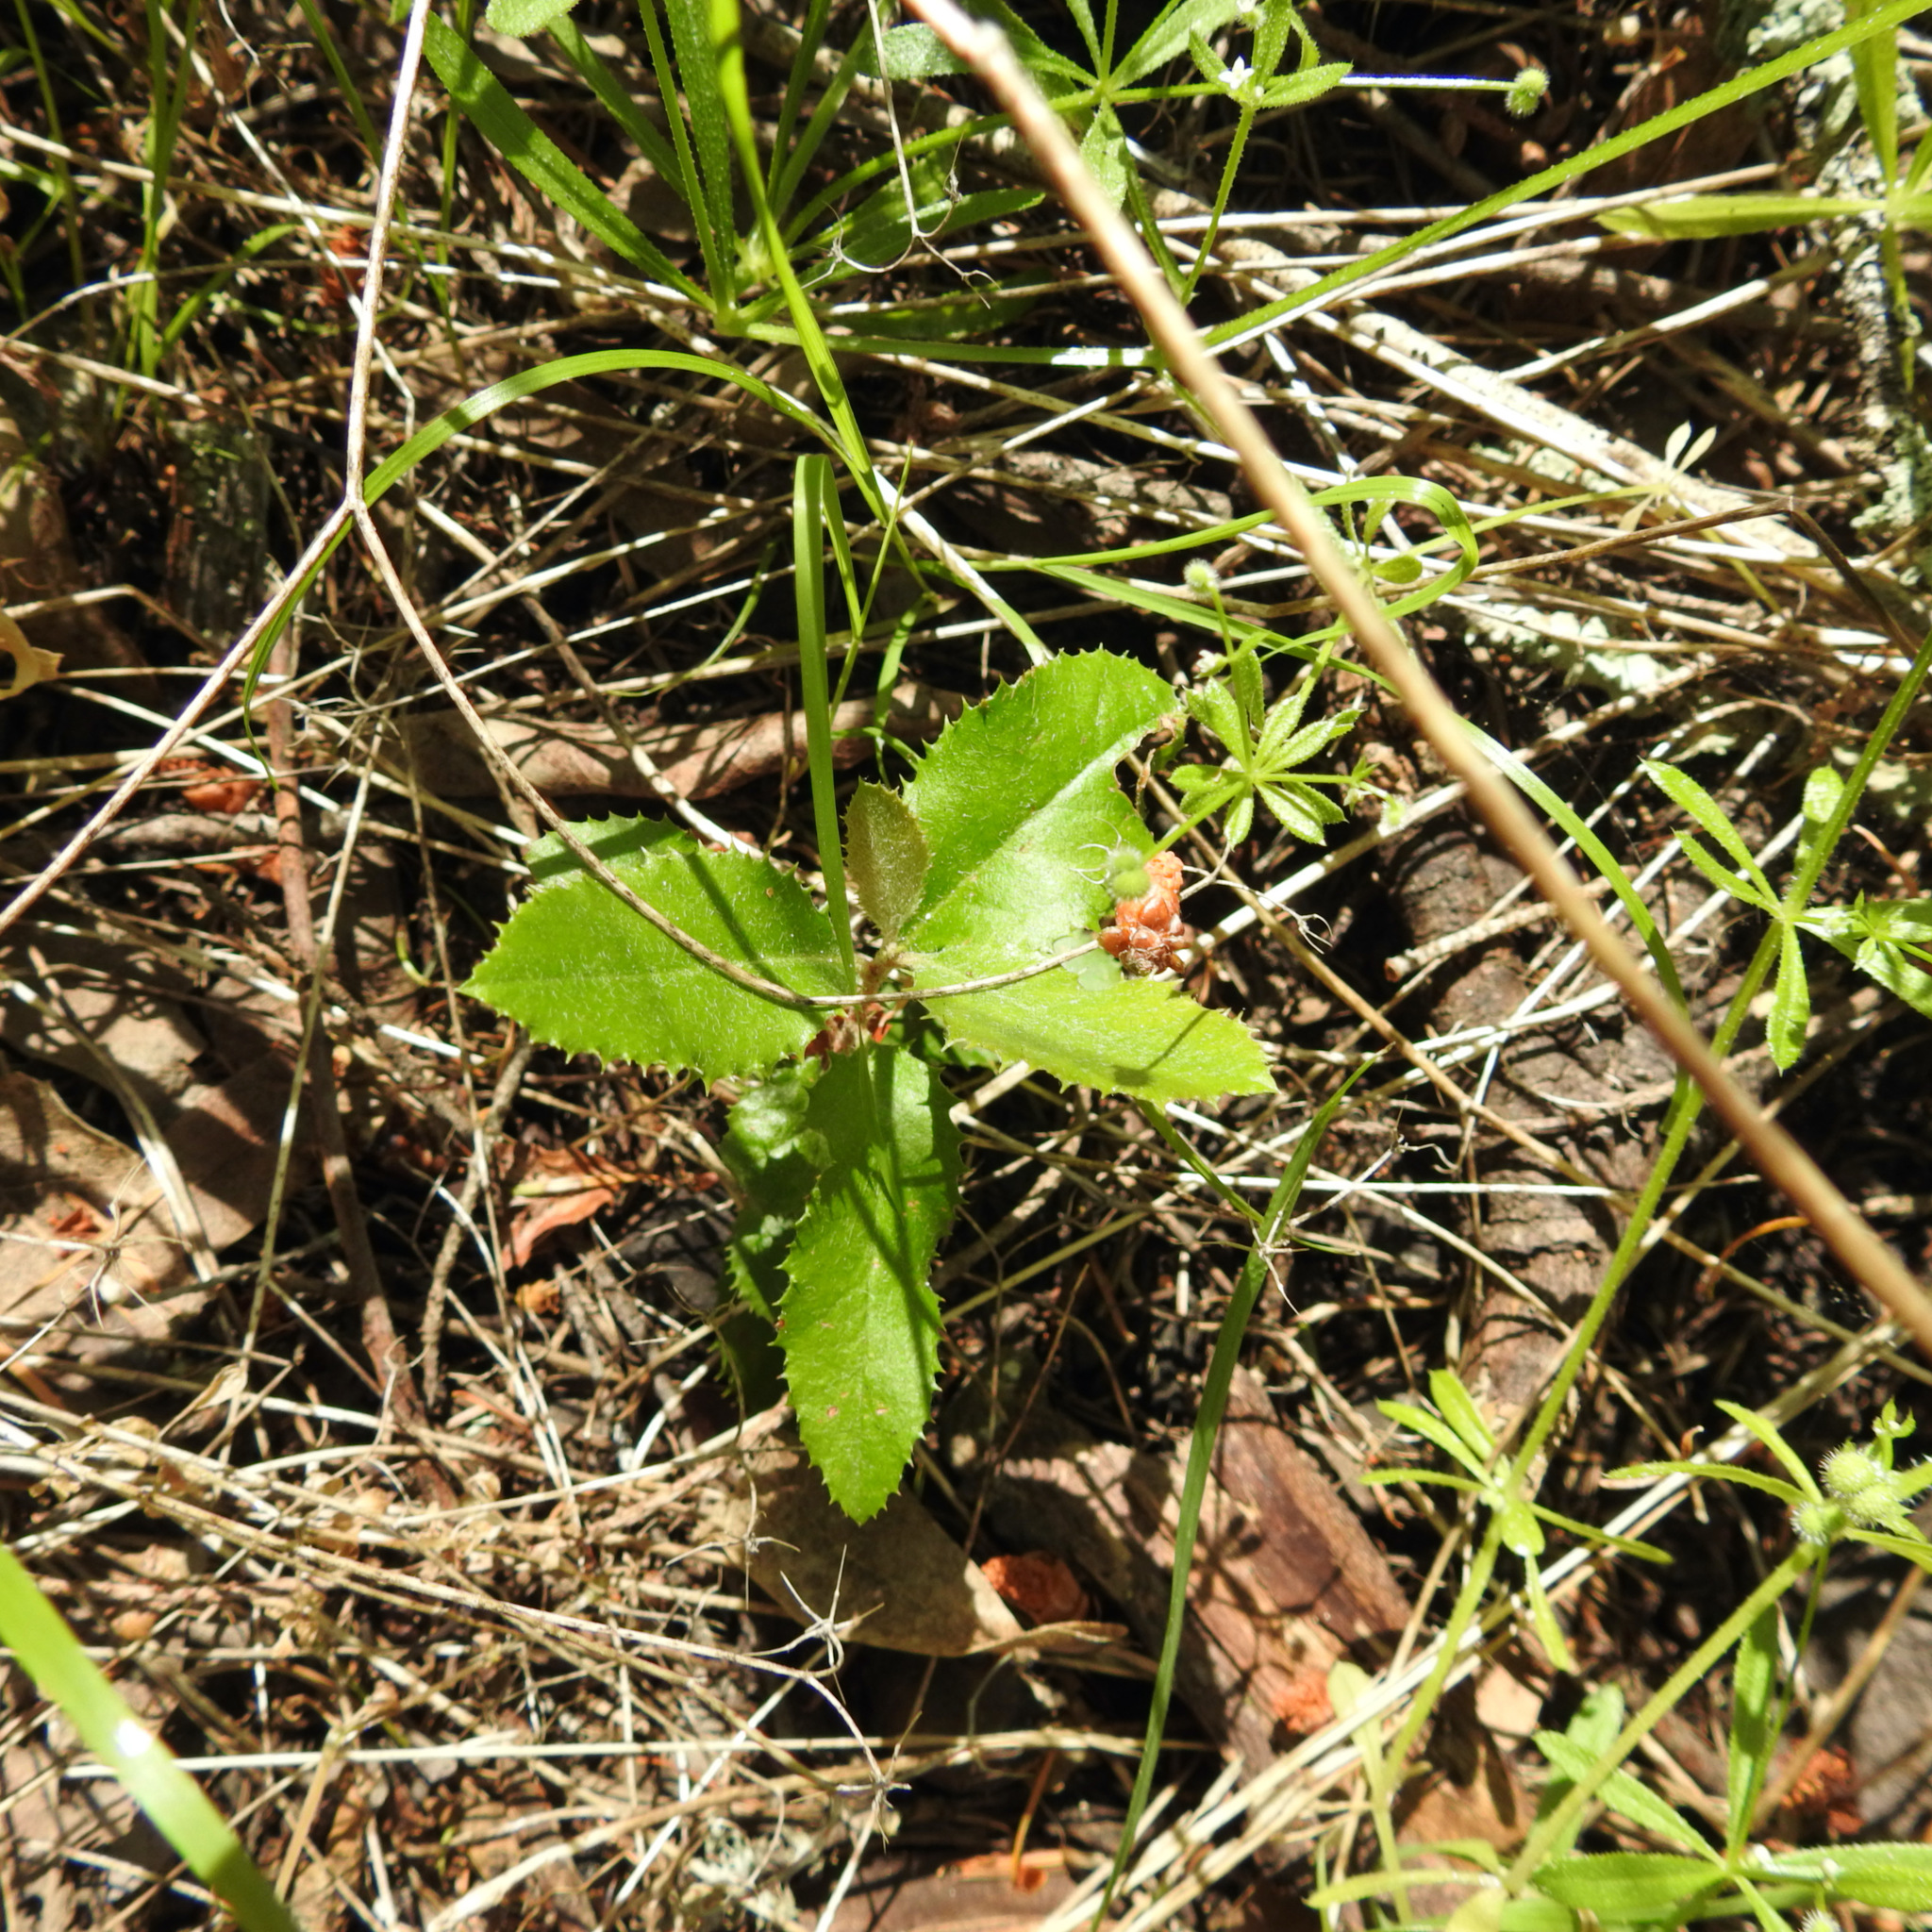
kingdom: Plantae
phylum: Tracheophyta
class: Magnoliopsida
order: Rosales
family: Rosaceae
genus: Heteromeles
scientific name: Heteromeles arbutifolia
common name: California-holly
